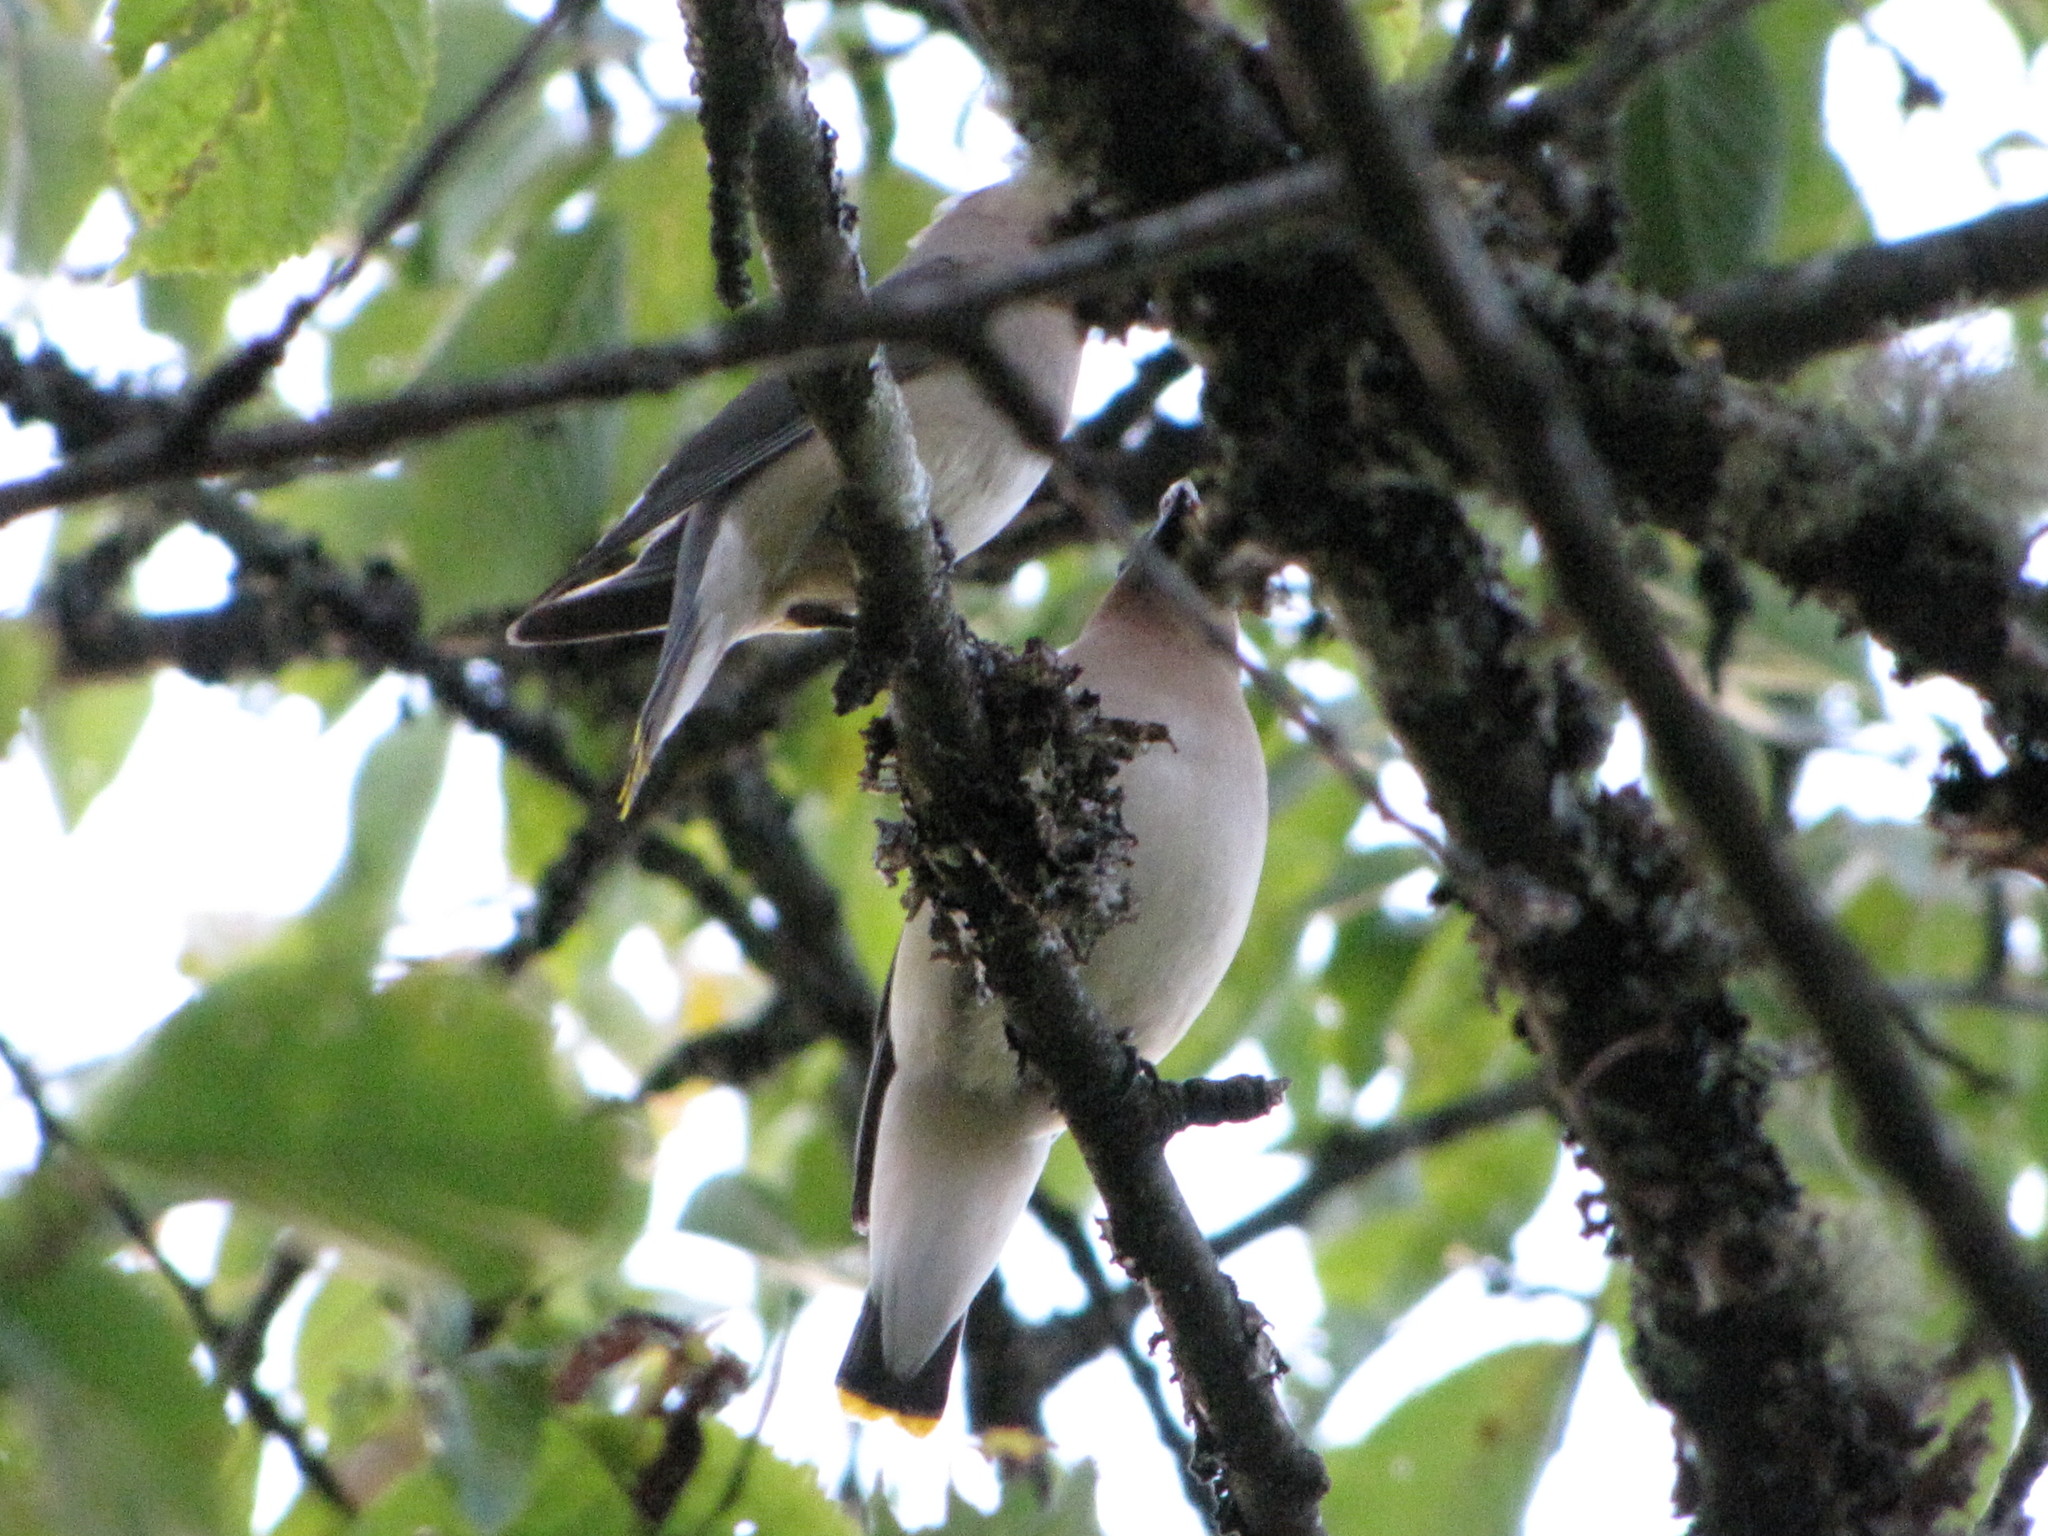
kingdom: Animalia
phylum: Chordata
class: Aves
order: Passeriformes
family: Bombycillidae
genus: Bombycilla
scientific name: Bombycilla cedrorum
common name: Cedar waxwing
